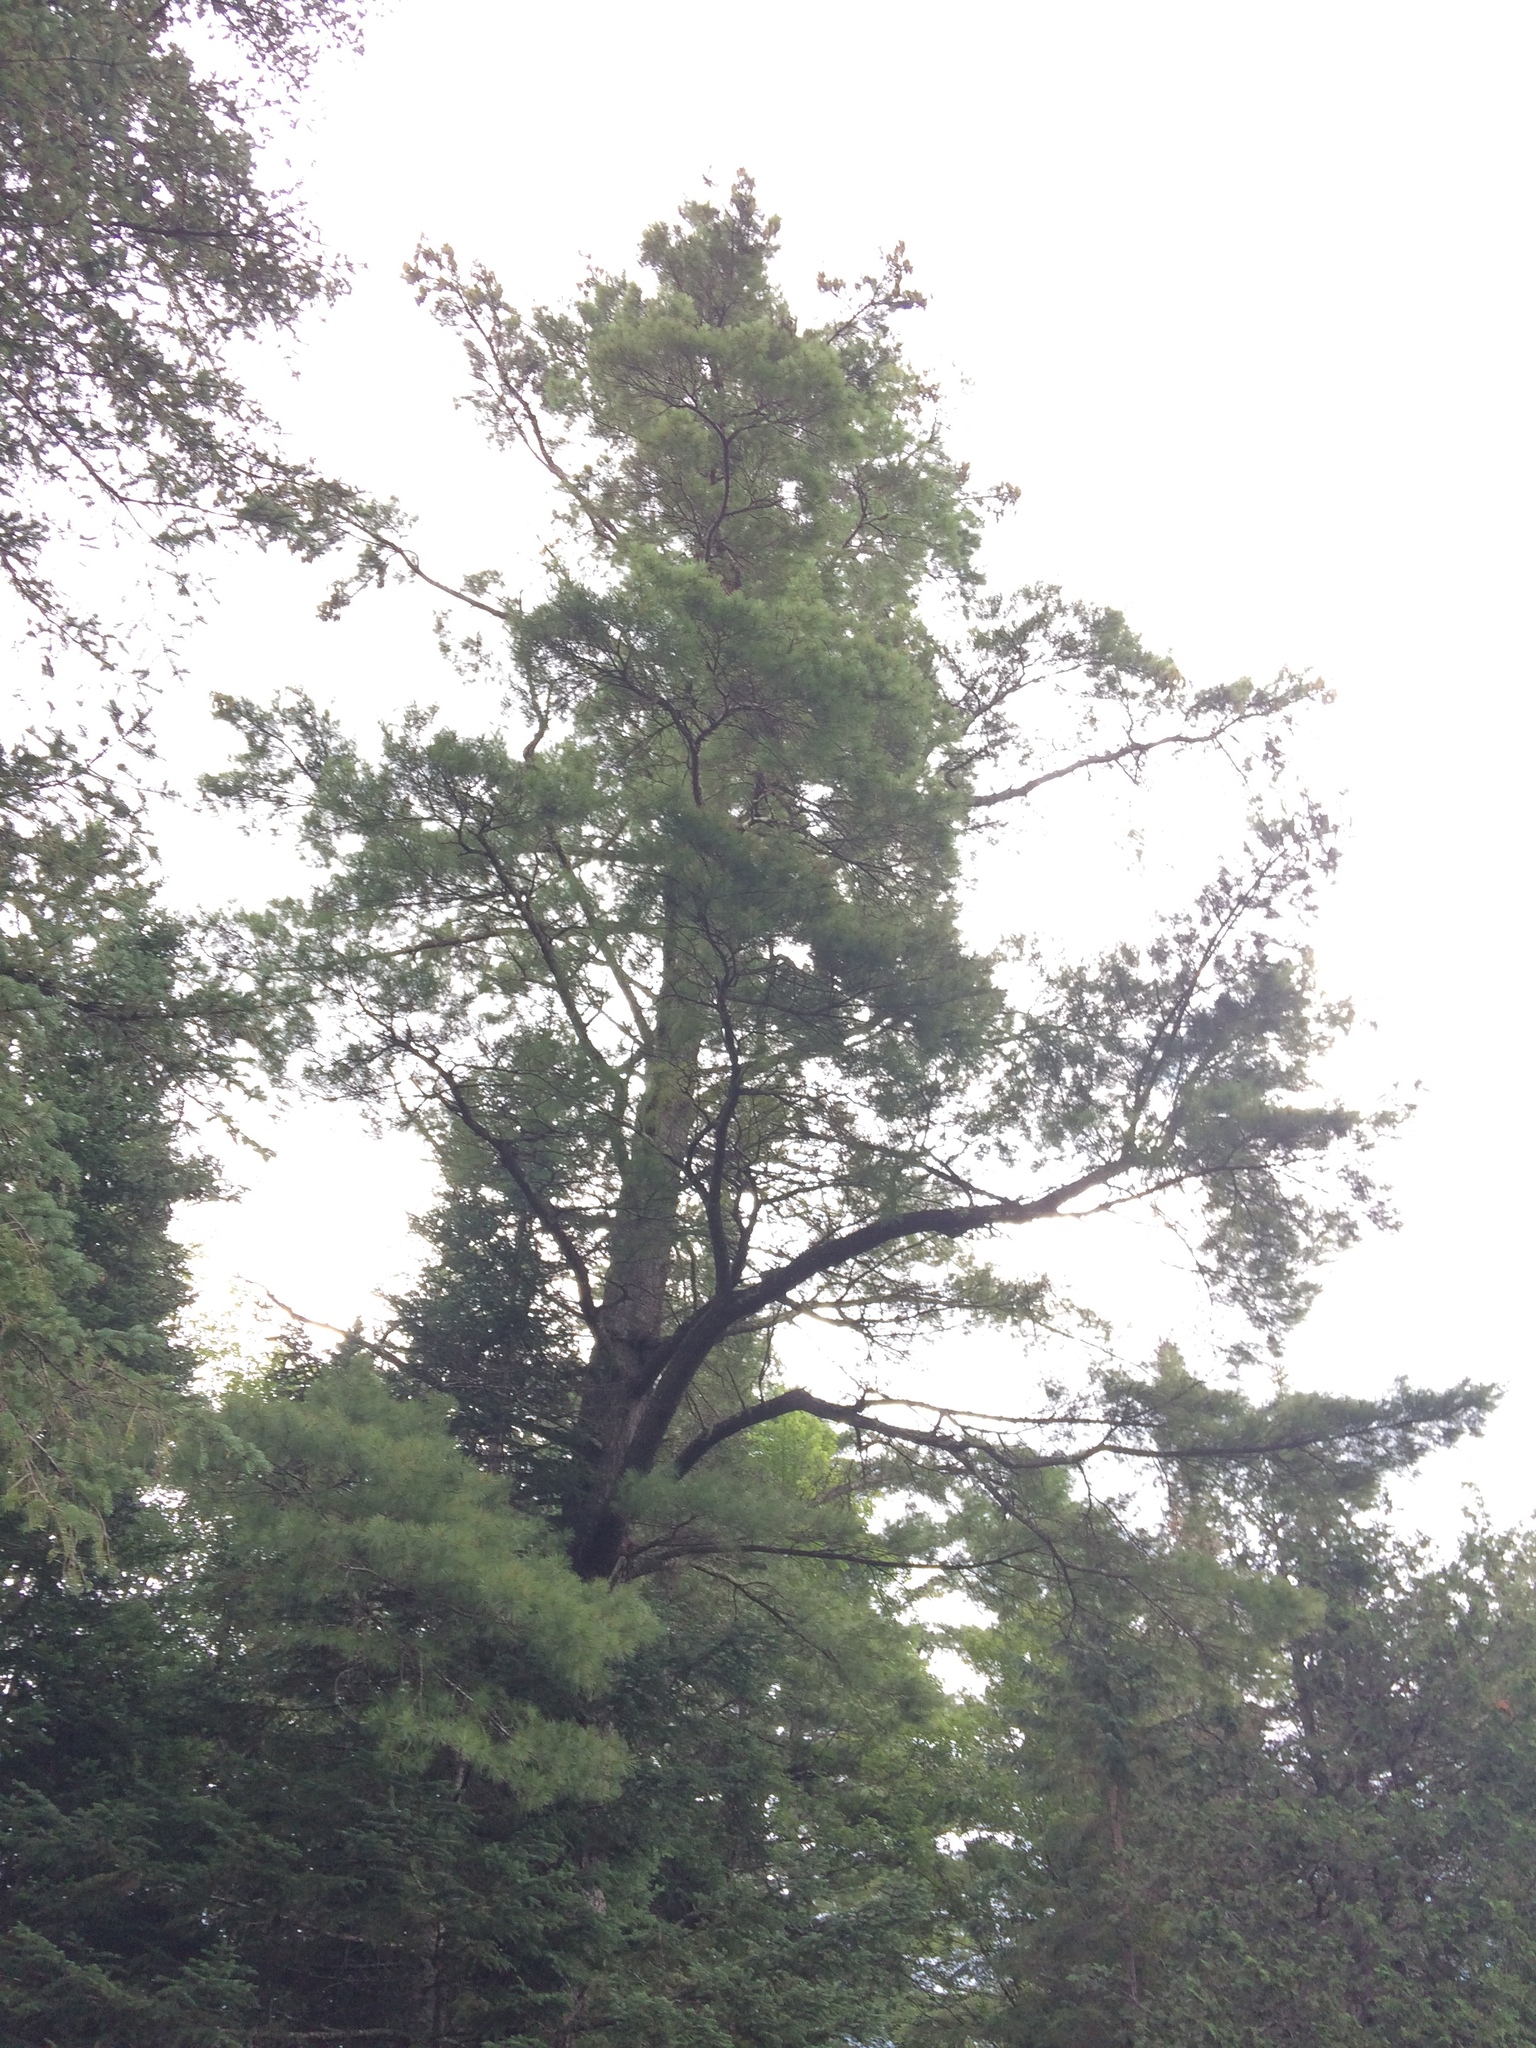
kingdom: Plantae
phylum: Tracheophyta
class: Pinopsida
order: Pinales
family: Pinaceae
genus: Pinus
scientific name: Pinus strobus
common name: Weymouth pine
